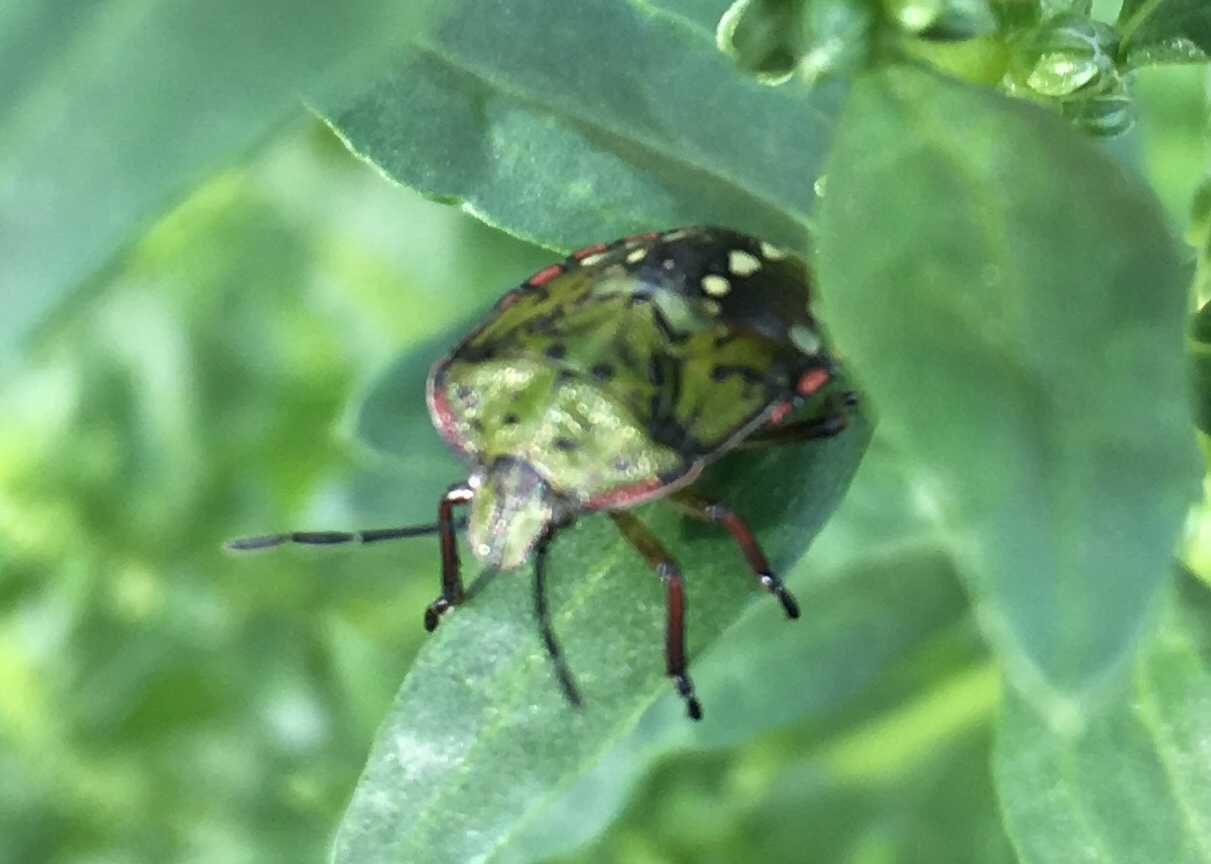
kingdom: Animalia
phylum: Arthropoda
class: Insecta
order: Hemiptera
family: Pentatomidae
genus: Nezara
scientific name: Nezara viridula
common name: Southern green stink bug
